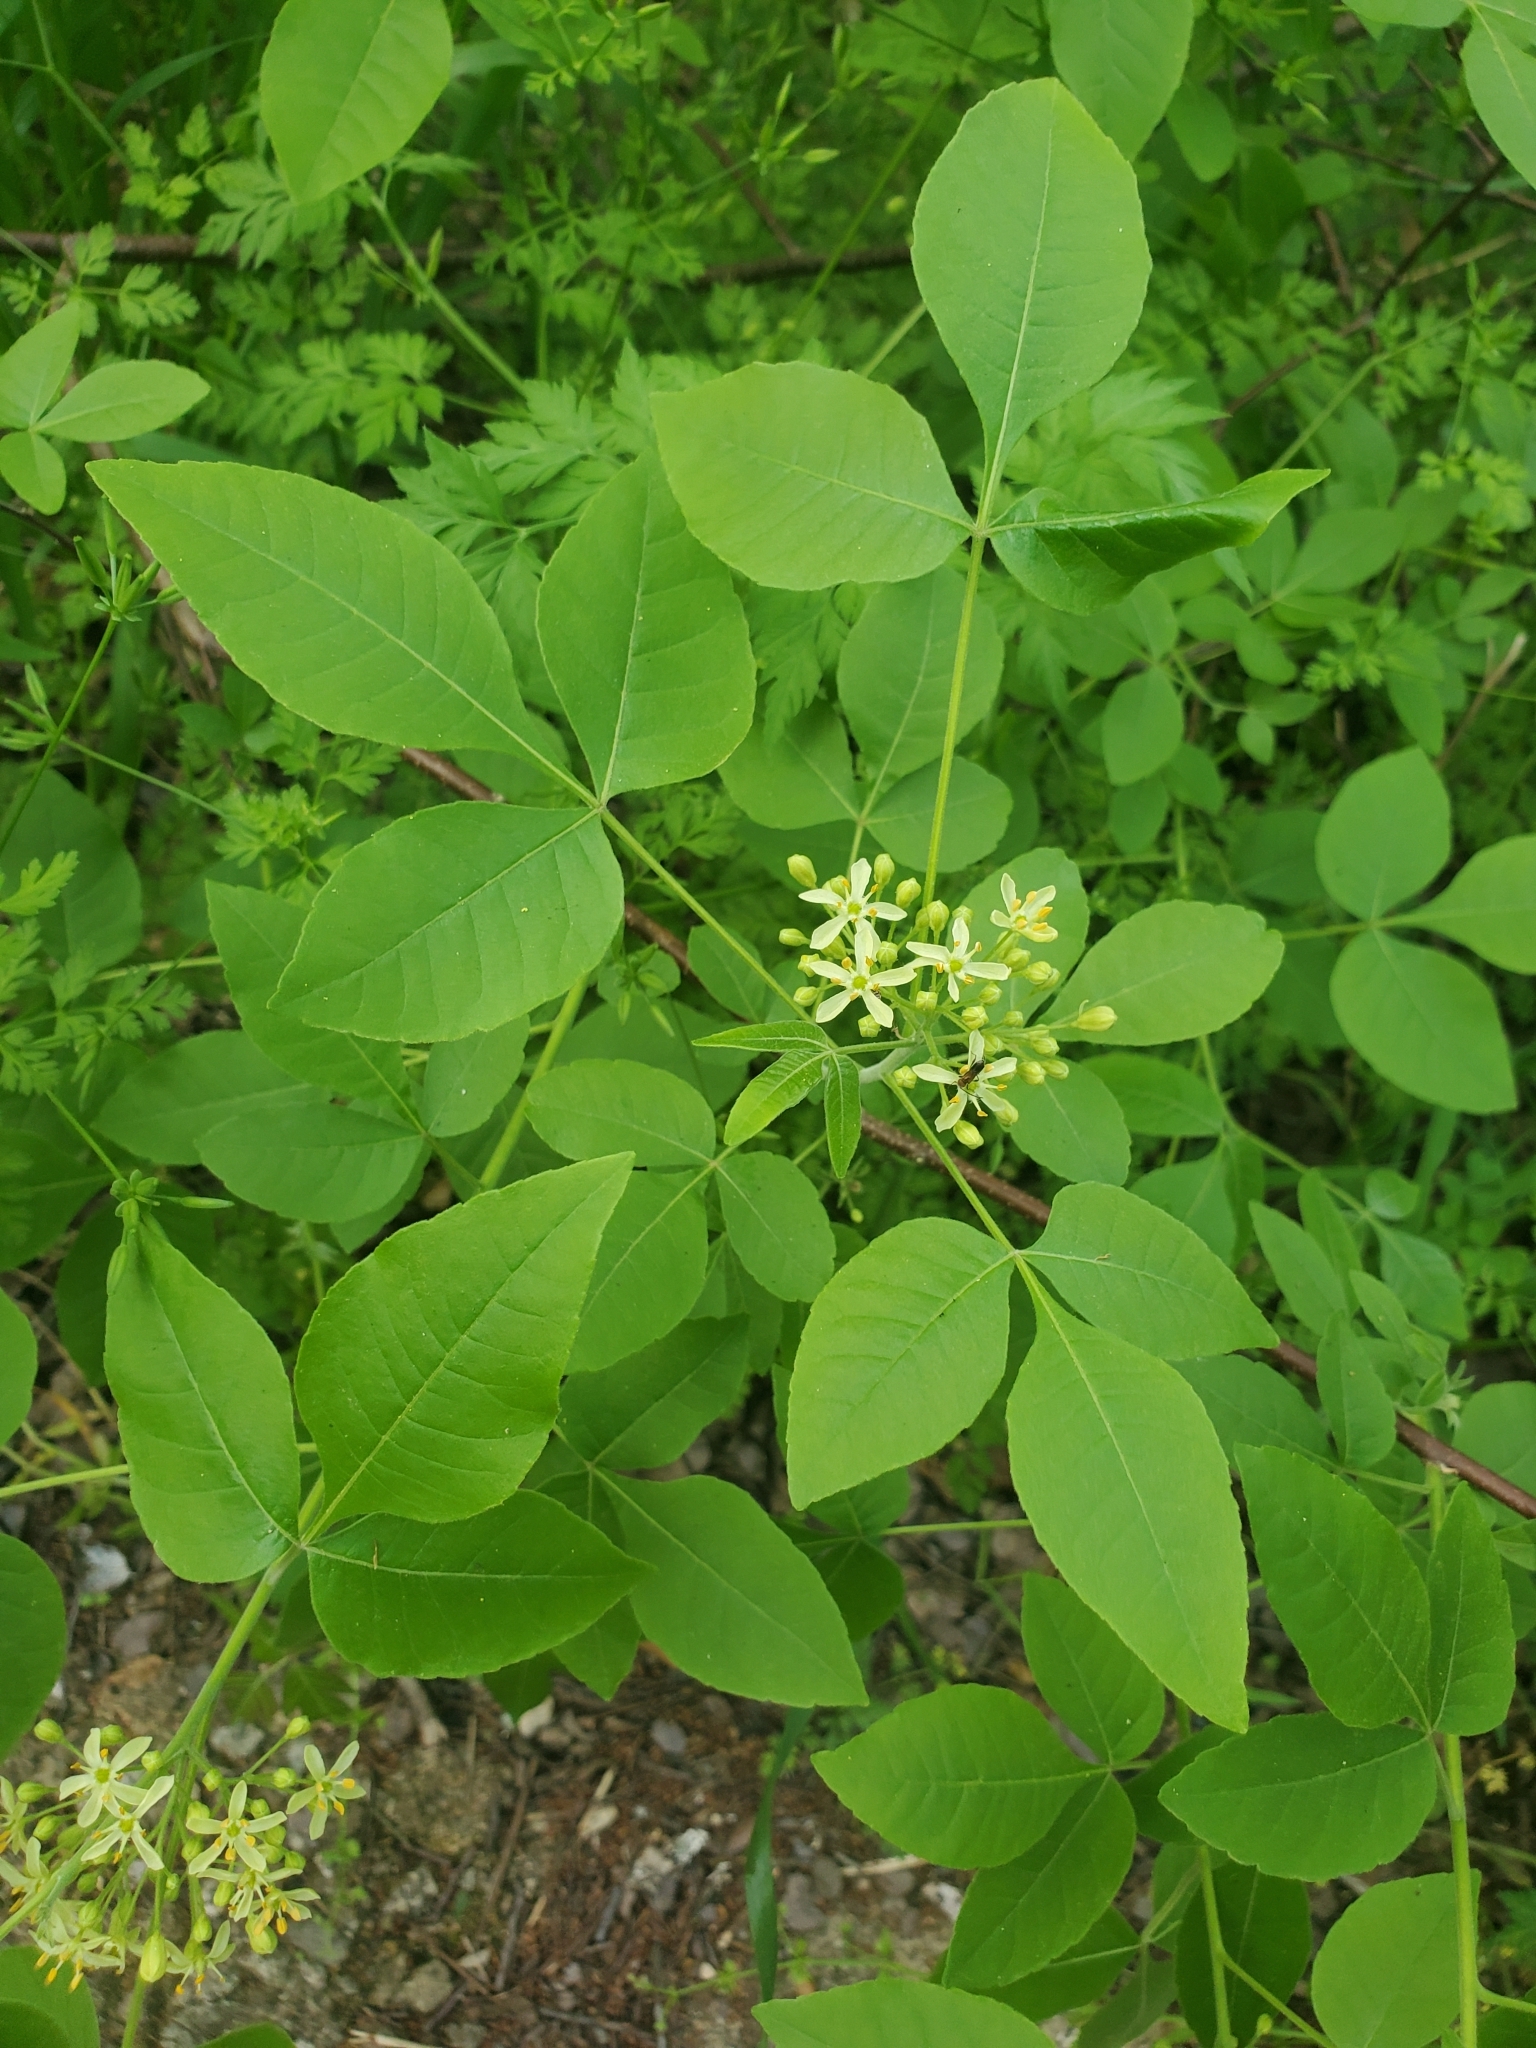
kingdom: Plantae
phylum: Tracheophyta
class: Magnoliopsida
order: Sapindales
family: Rutaceae
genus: Ptelea
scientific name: Ptelea trifoliata
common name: Common hop-tree
